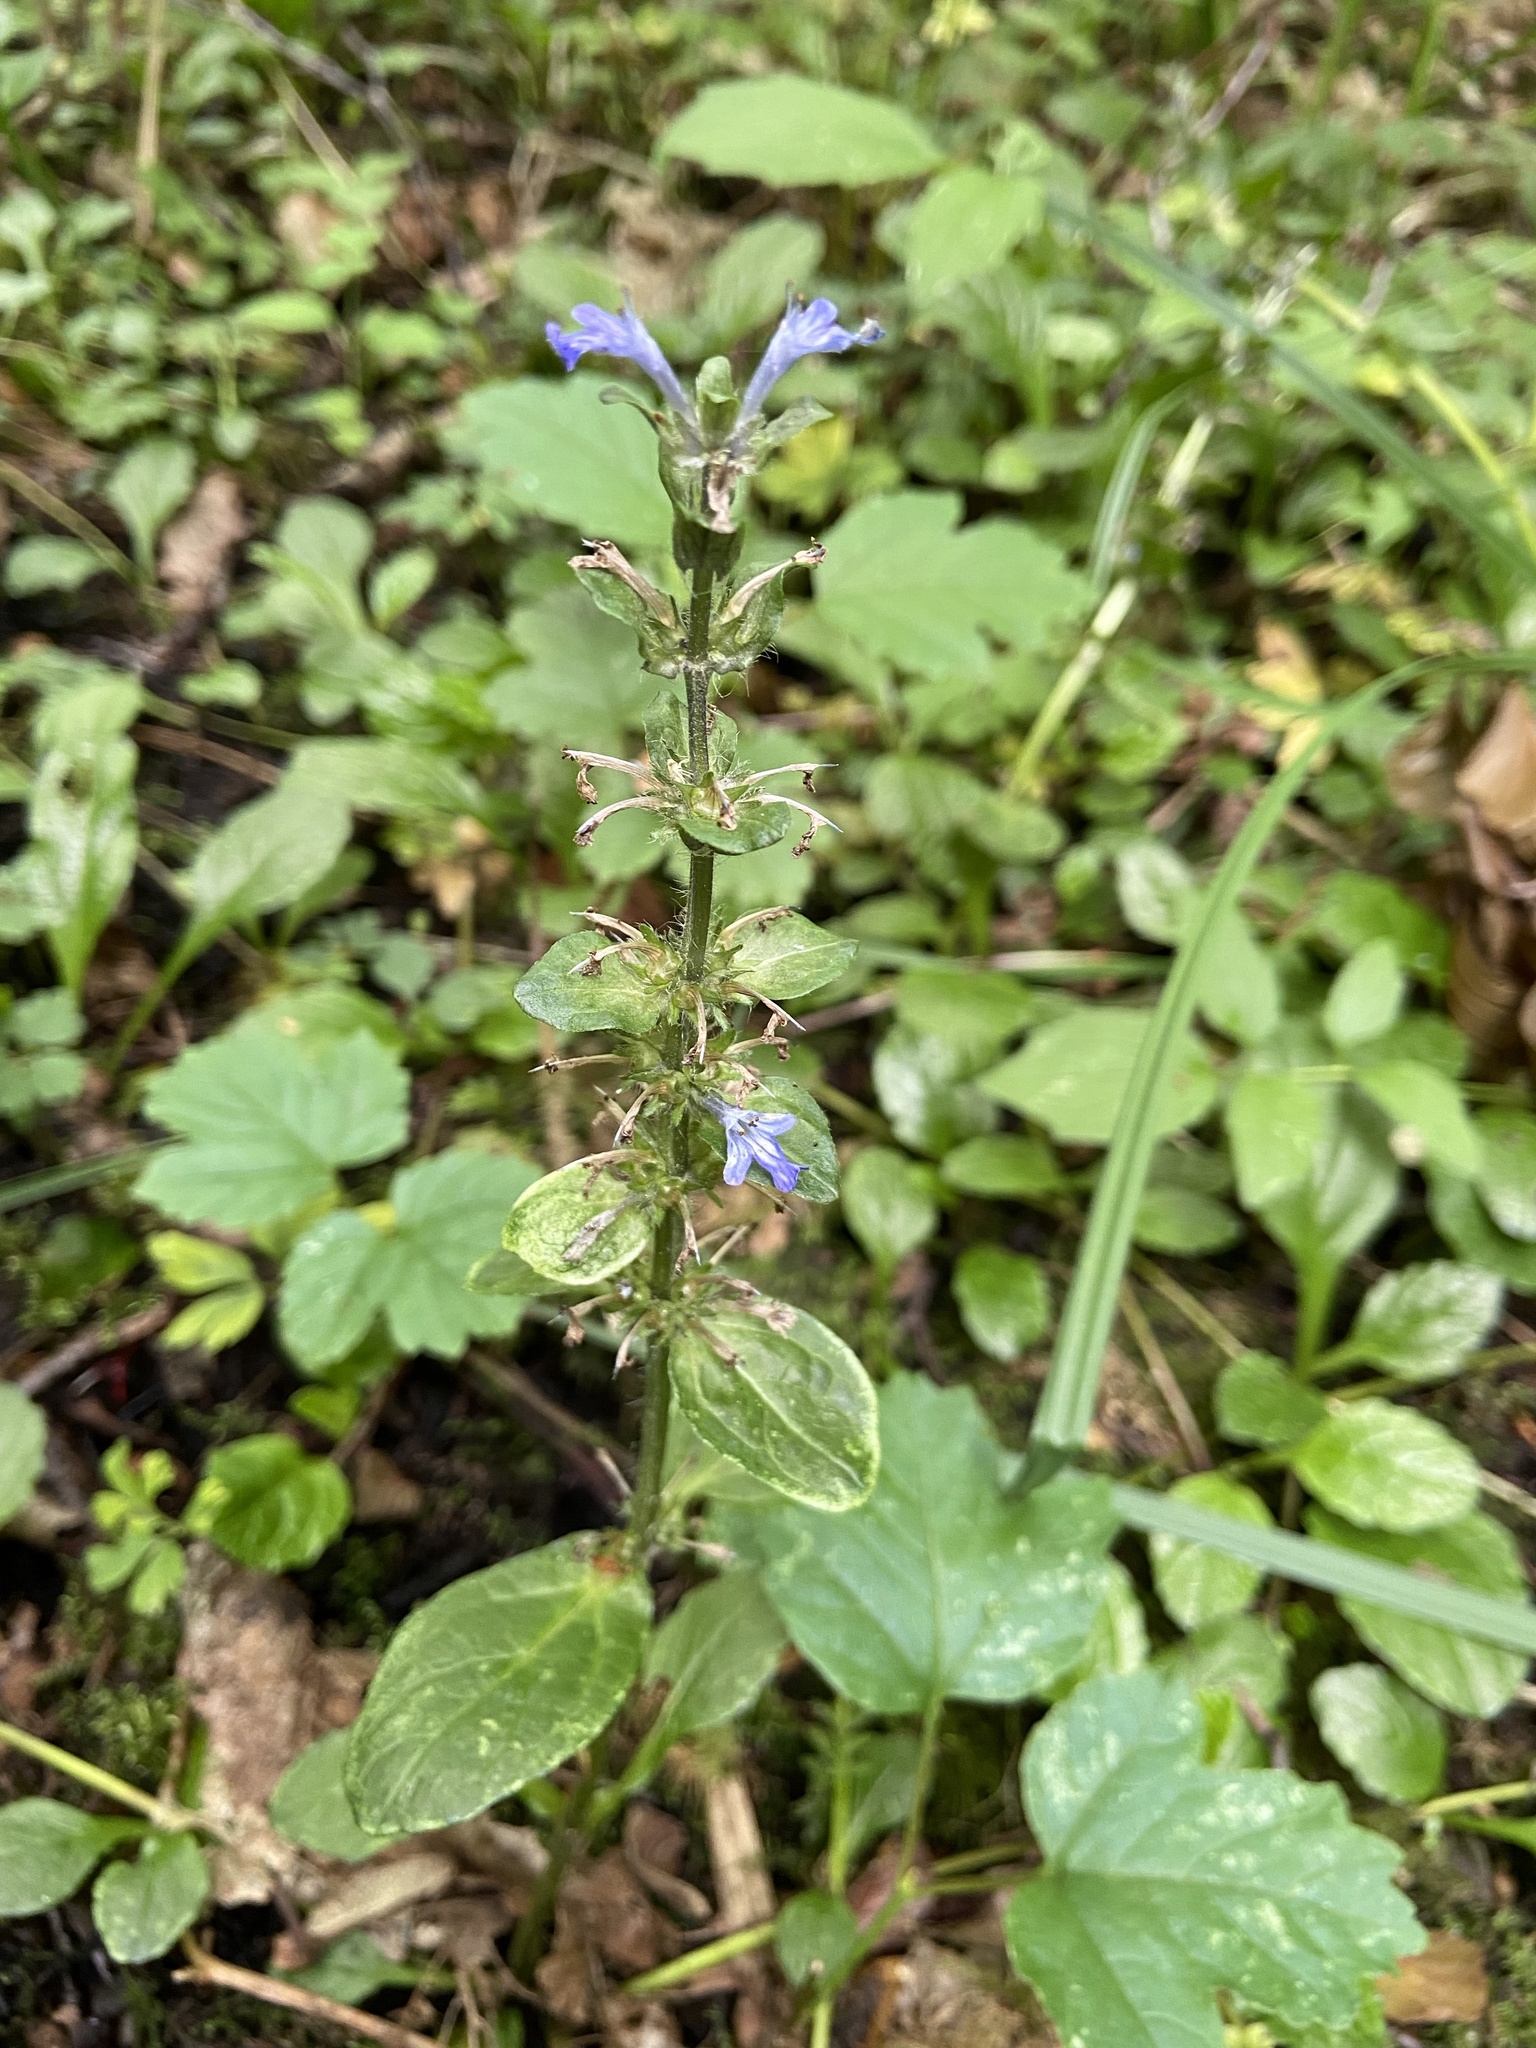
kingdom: Plantae
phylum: Tracheophyta
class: Magnoliopsida
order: Lamiales
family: Lamiaceae
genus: Ajuga
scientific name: Ajuga reptans
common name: Bugle
